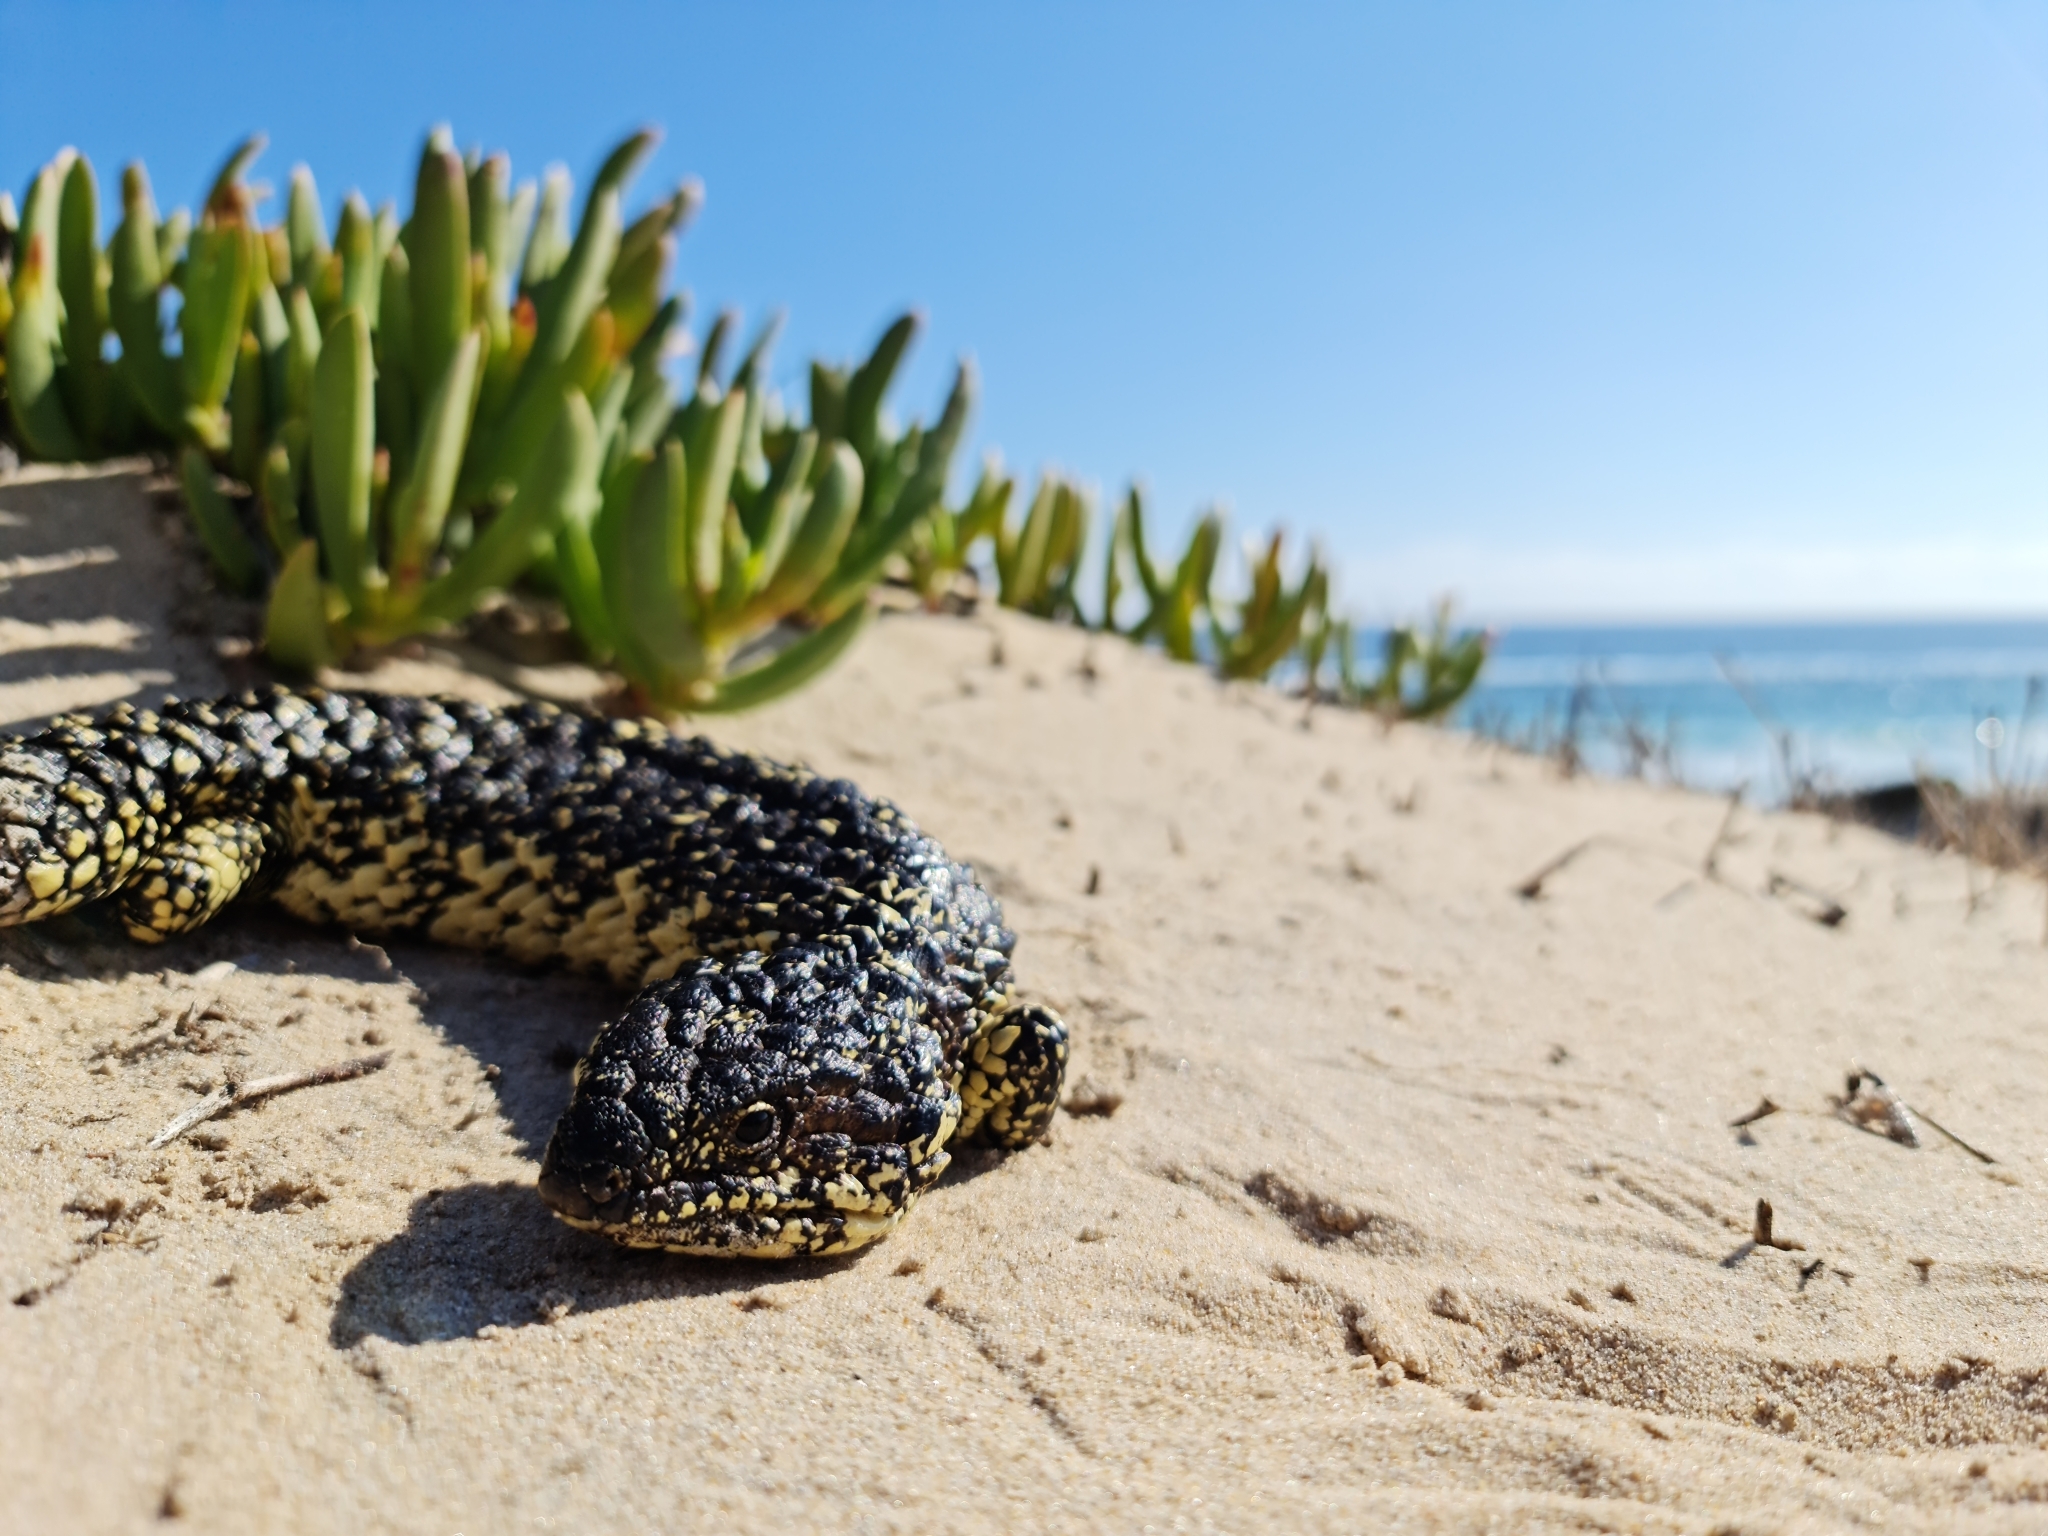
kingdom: Animalia
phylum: Chordata
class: Squamata
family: Scincidae
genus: Tiliqua
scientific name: Tiliqua rugosa
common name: Pinecone lizard
